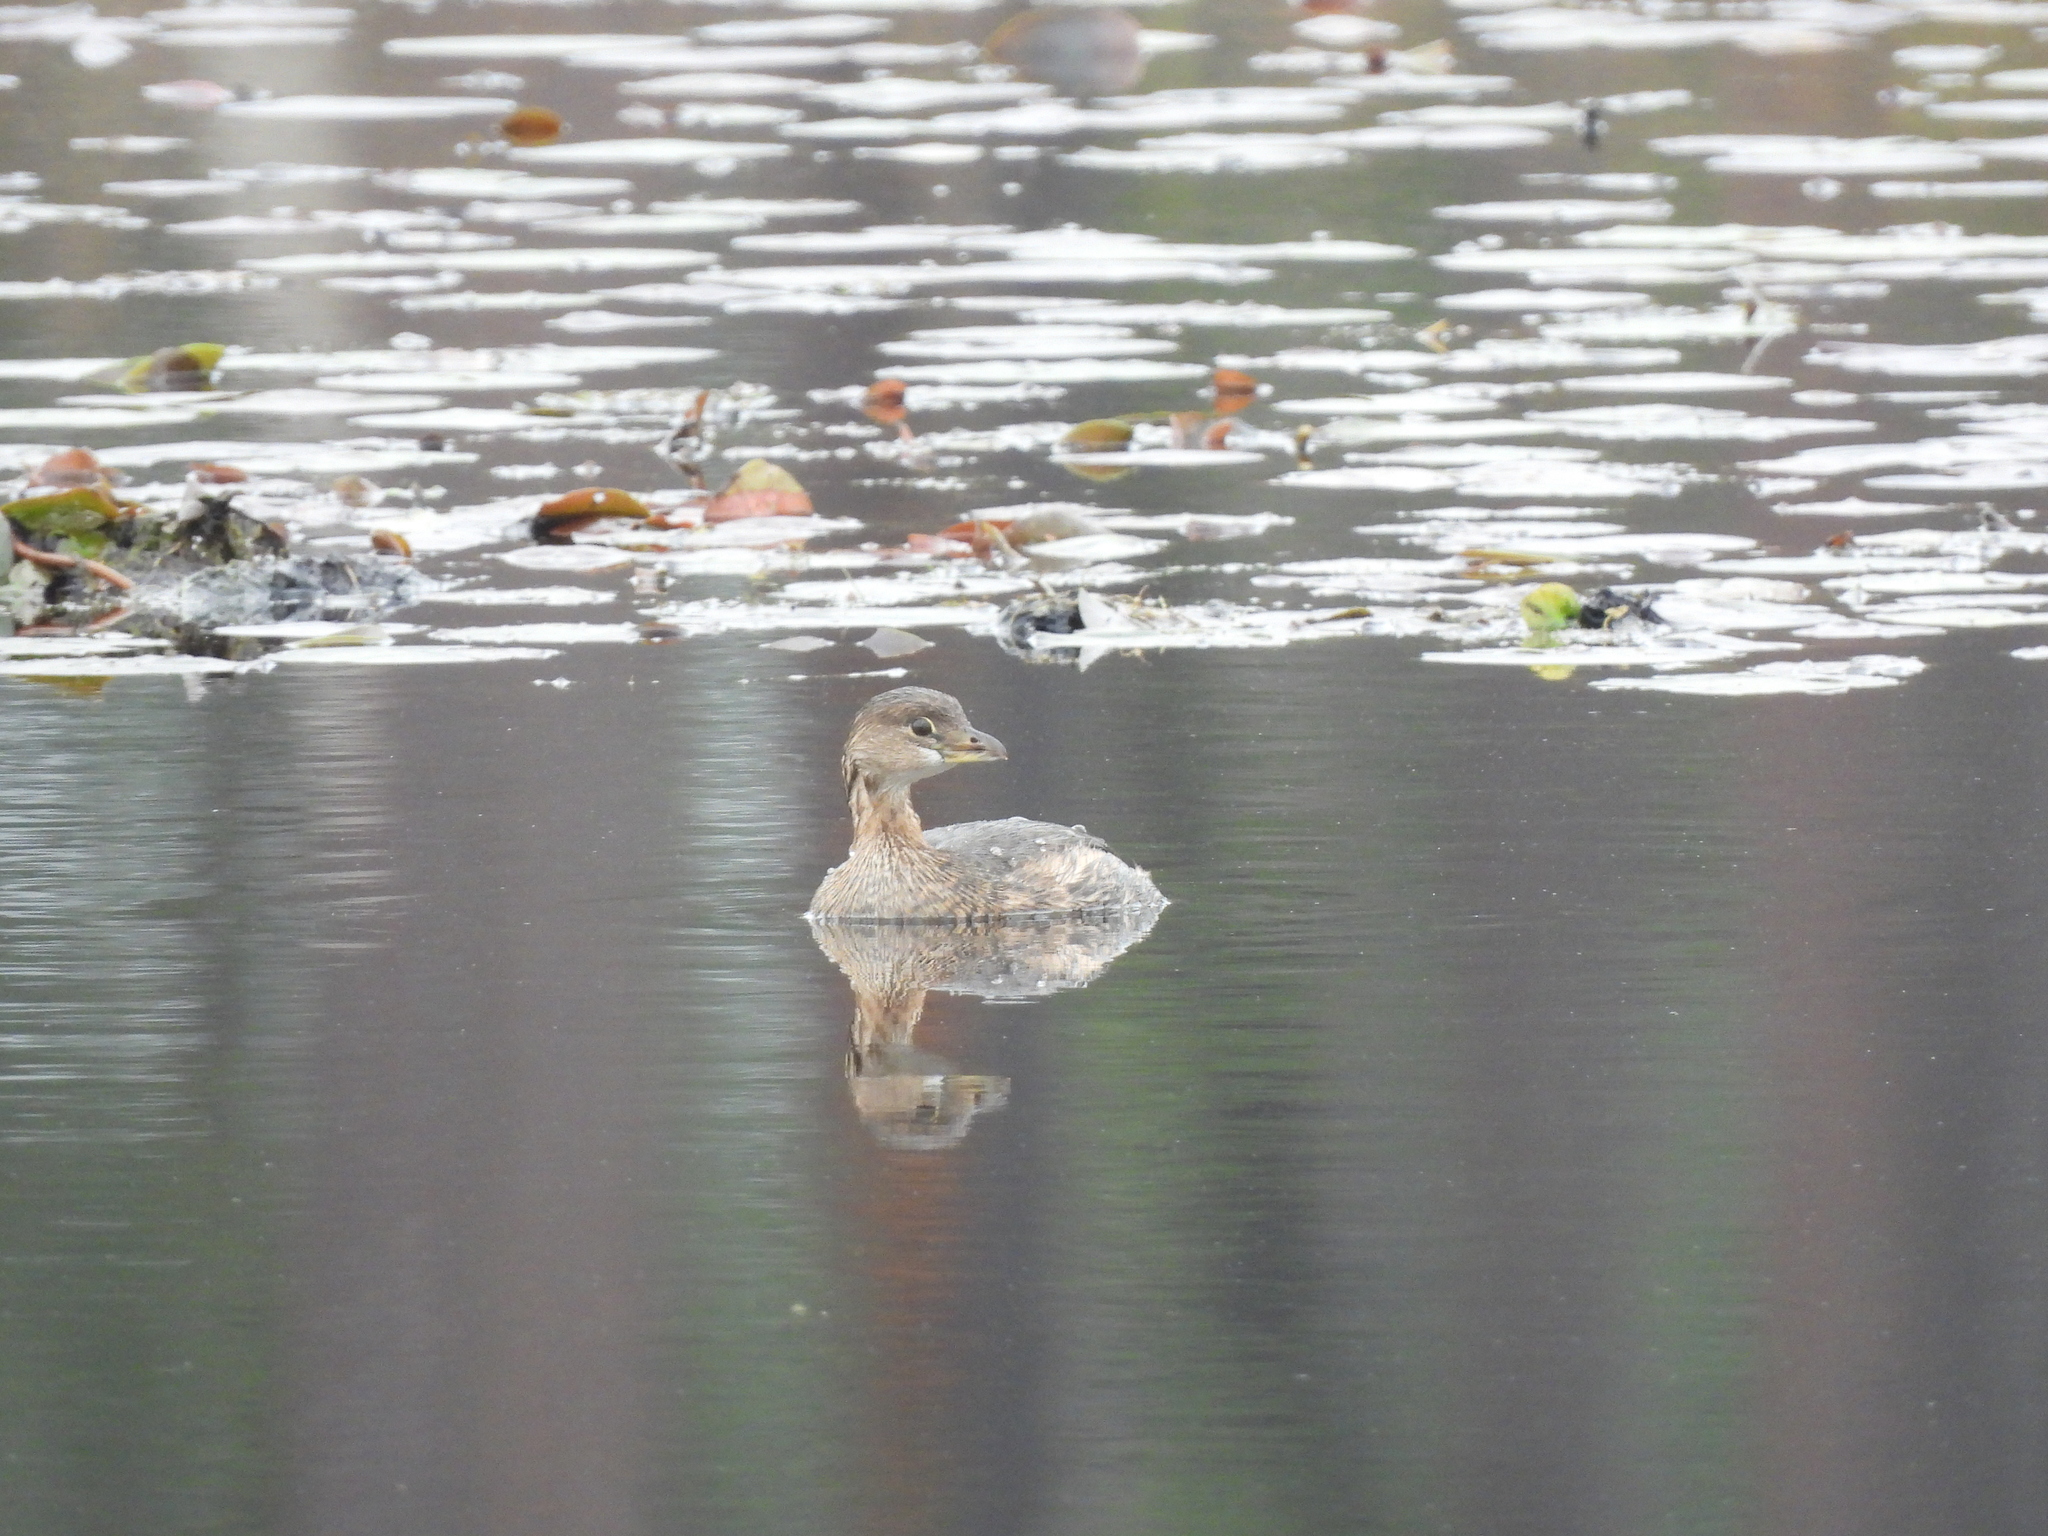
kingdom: Animalia
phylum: Chordata
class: Aves
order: Podicipediformes
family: Podicipedidae
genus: Podilymbus
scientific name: Podilymbus podiceps
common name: Pied-billed grebe
